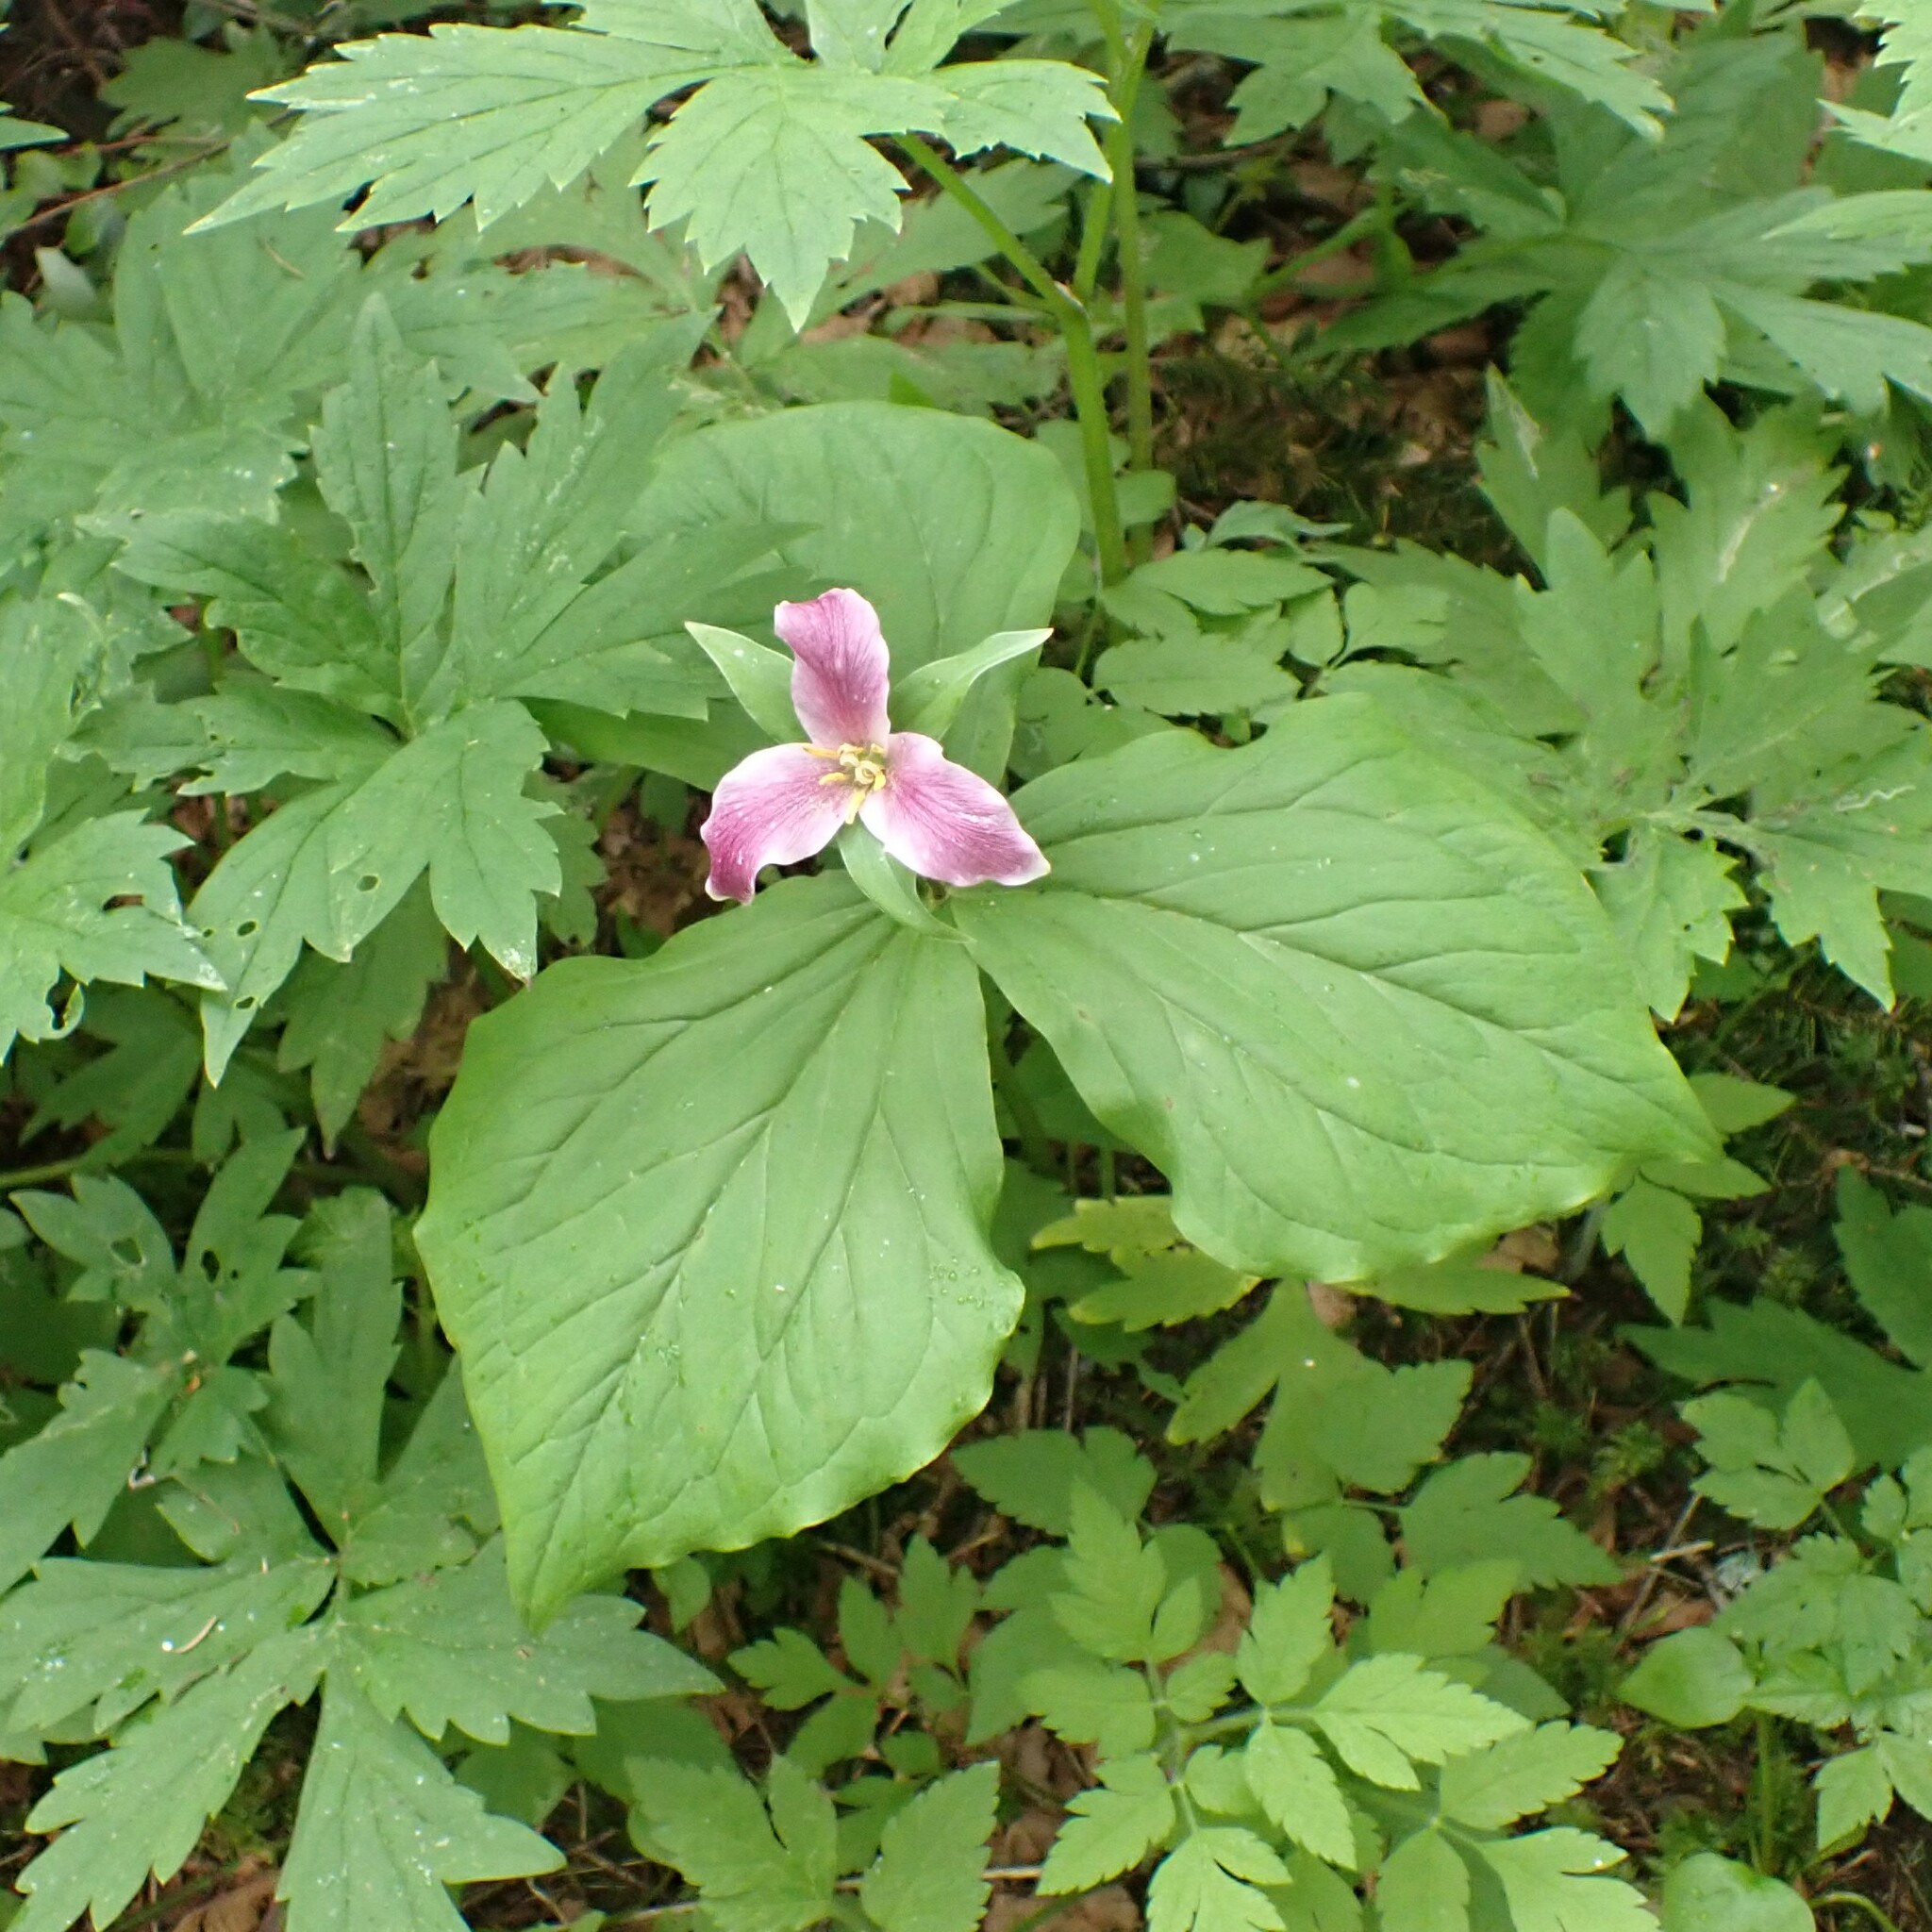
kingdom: Plantae
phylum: Tracheophyta
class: Liliopsida
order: Liliales
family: Melanthiaceae
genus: Trillium
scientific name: Trillium ovatum
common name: Pacific trillium
